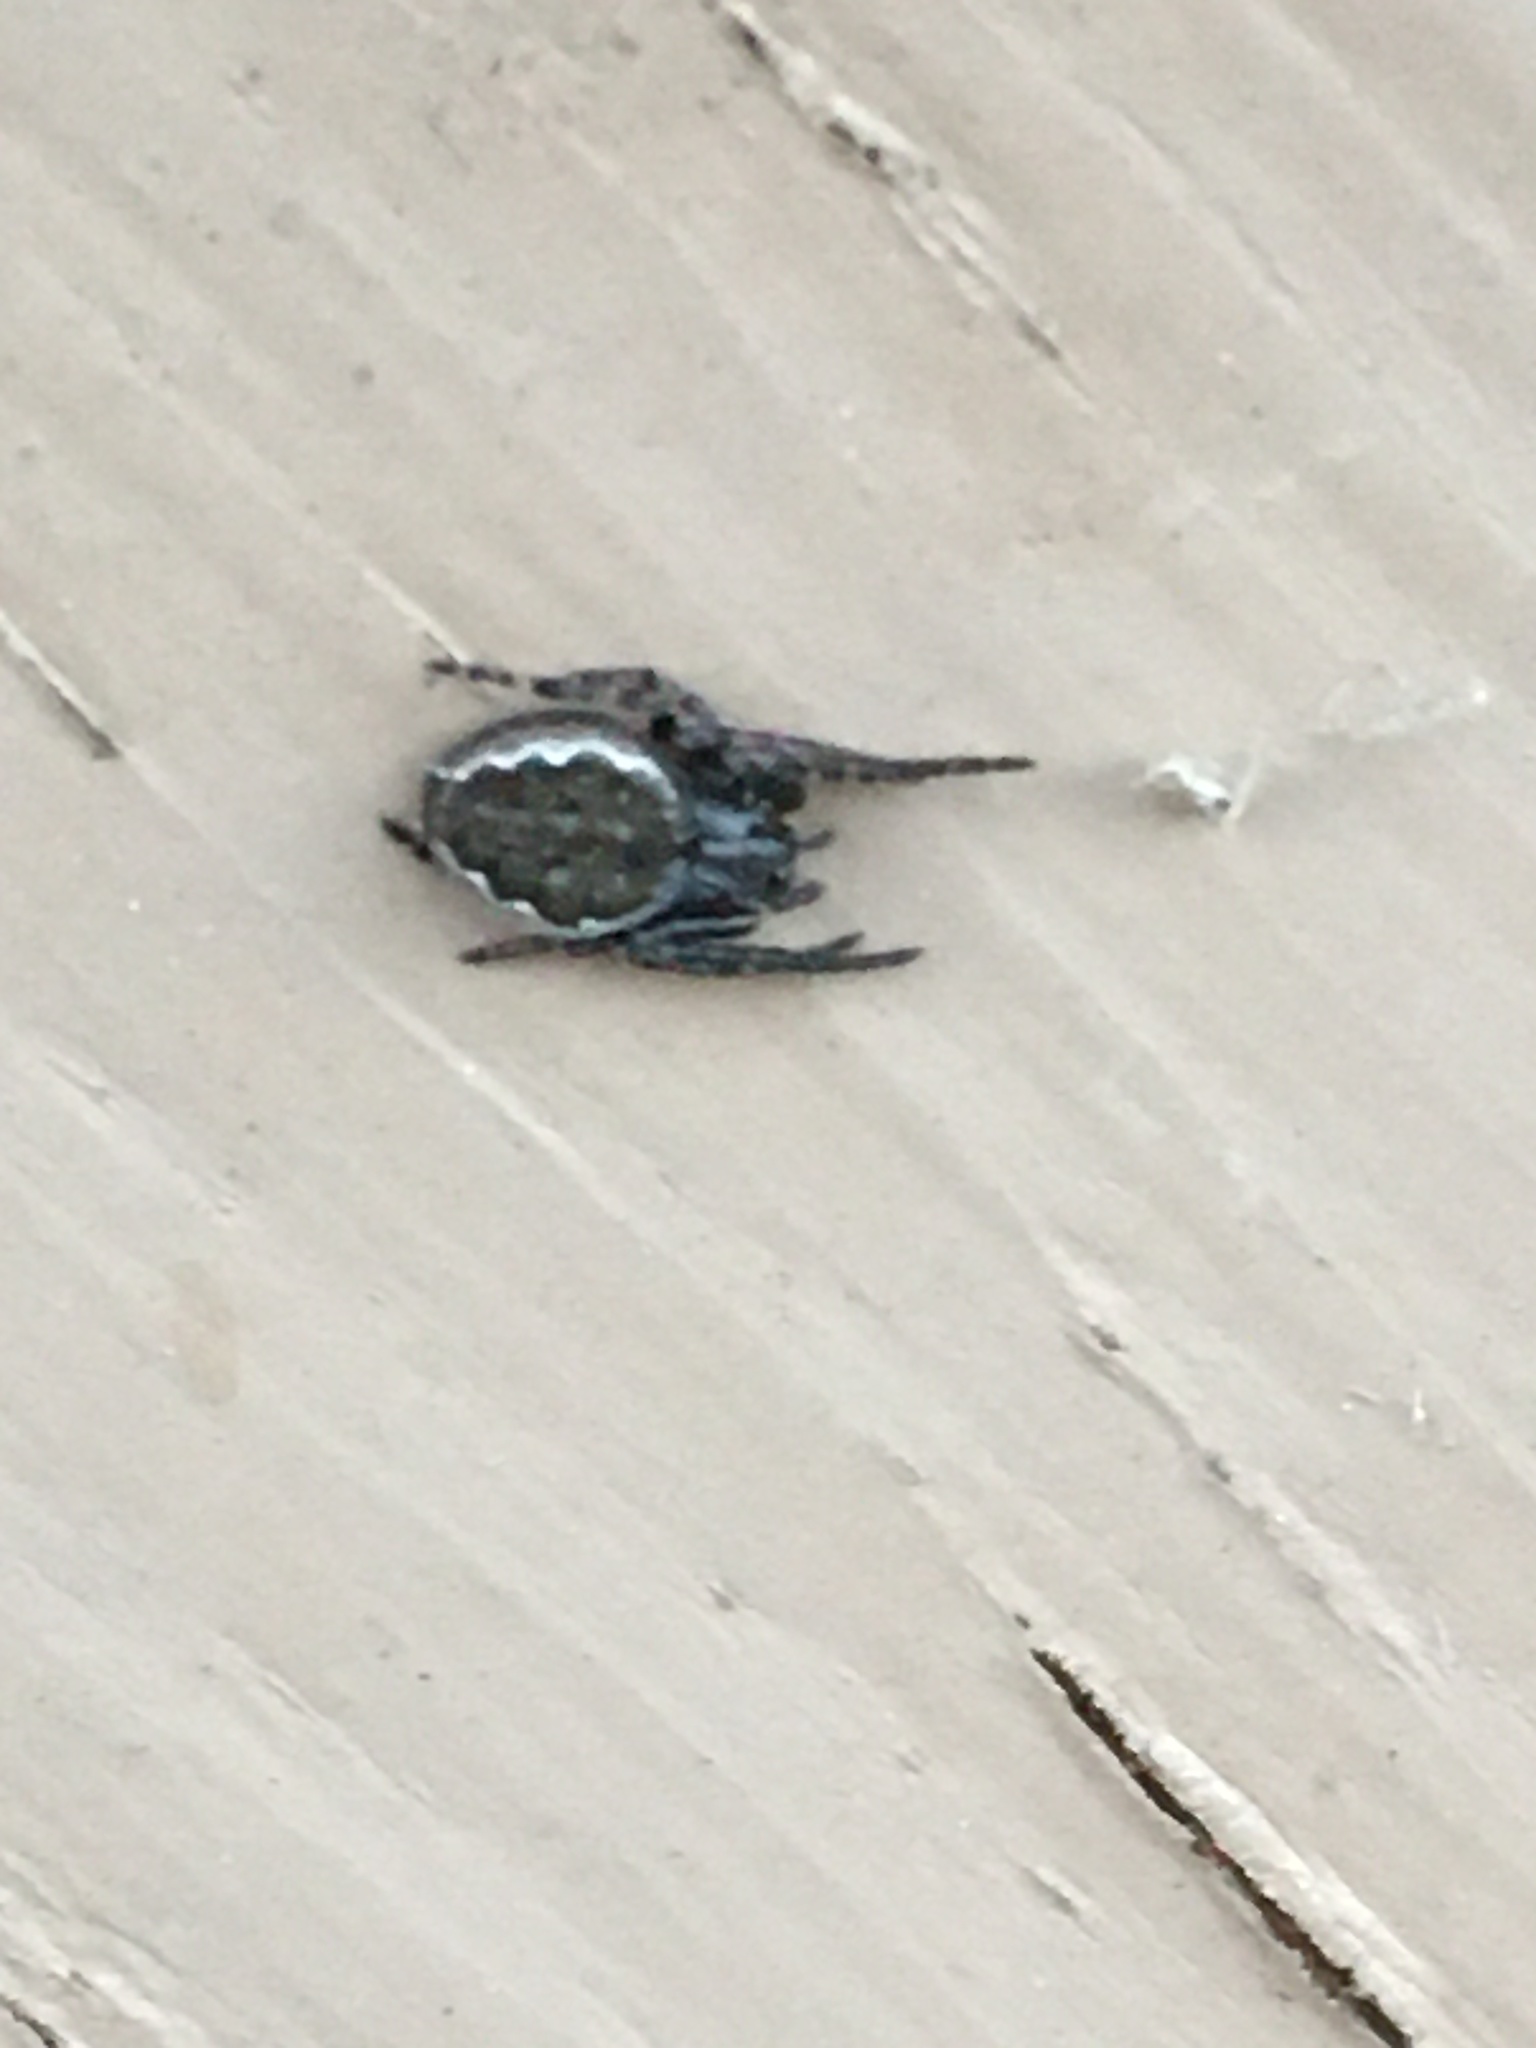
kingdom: Animalia
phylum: Arthropoda
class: Arachnida
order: Araneae
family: Araneidae
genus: Nuctenea
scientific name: Nuctenea umbratica
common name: Toad spider
